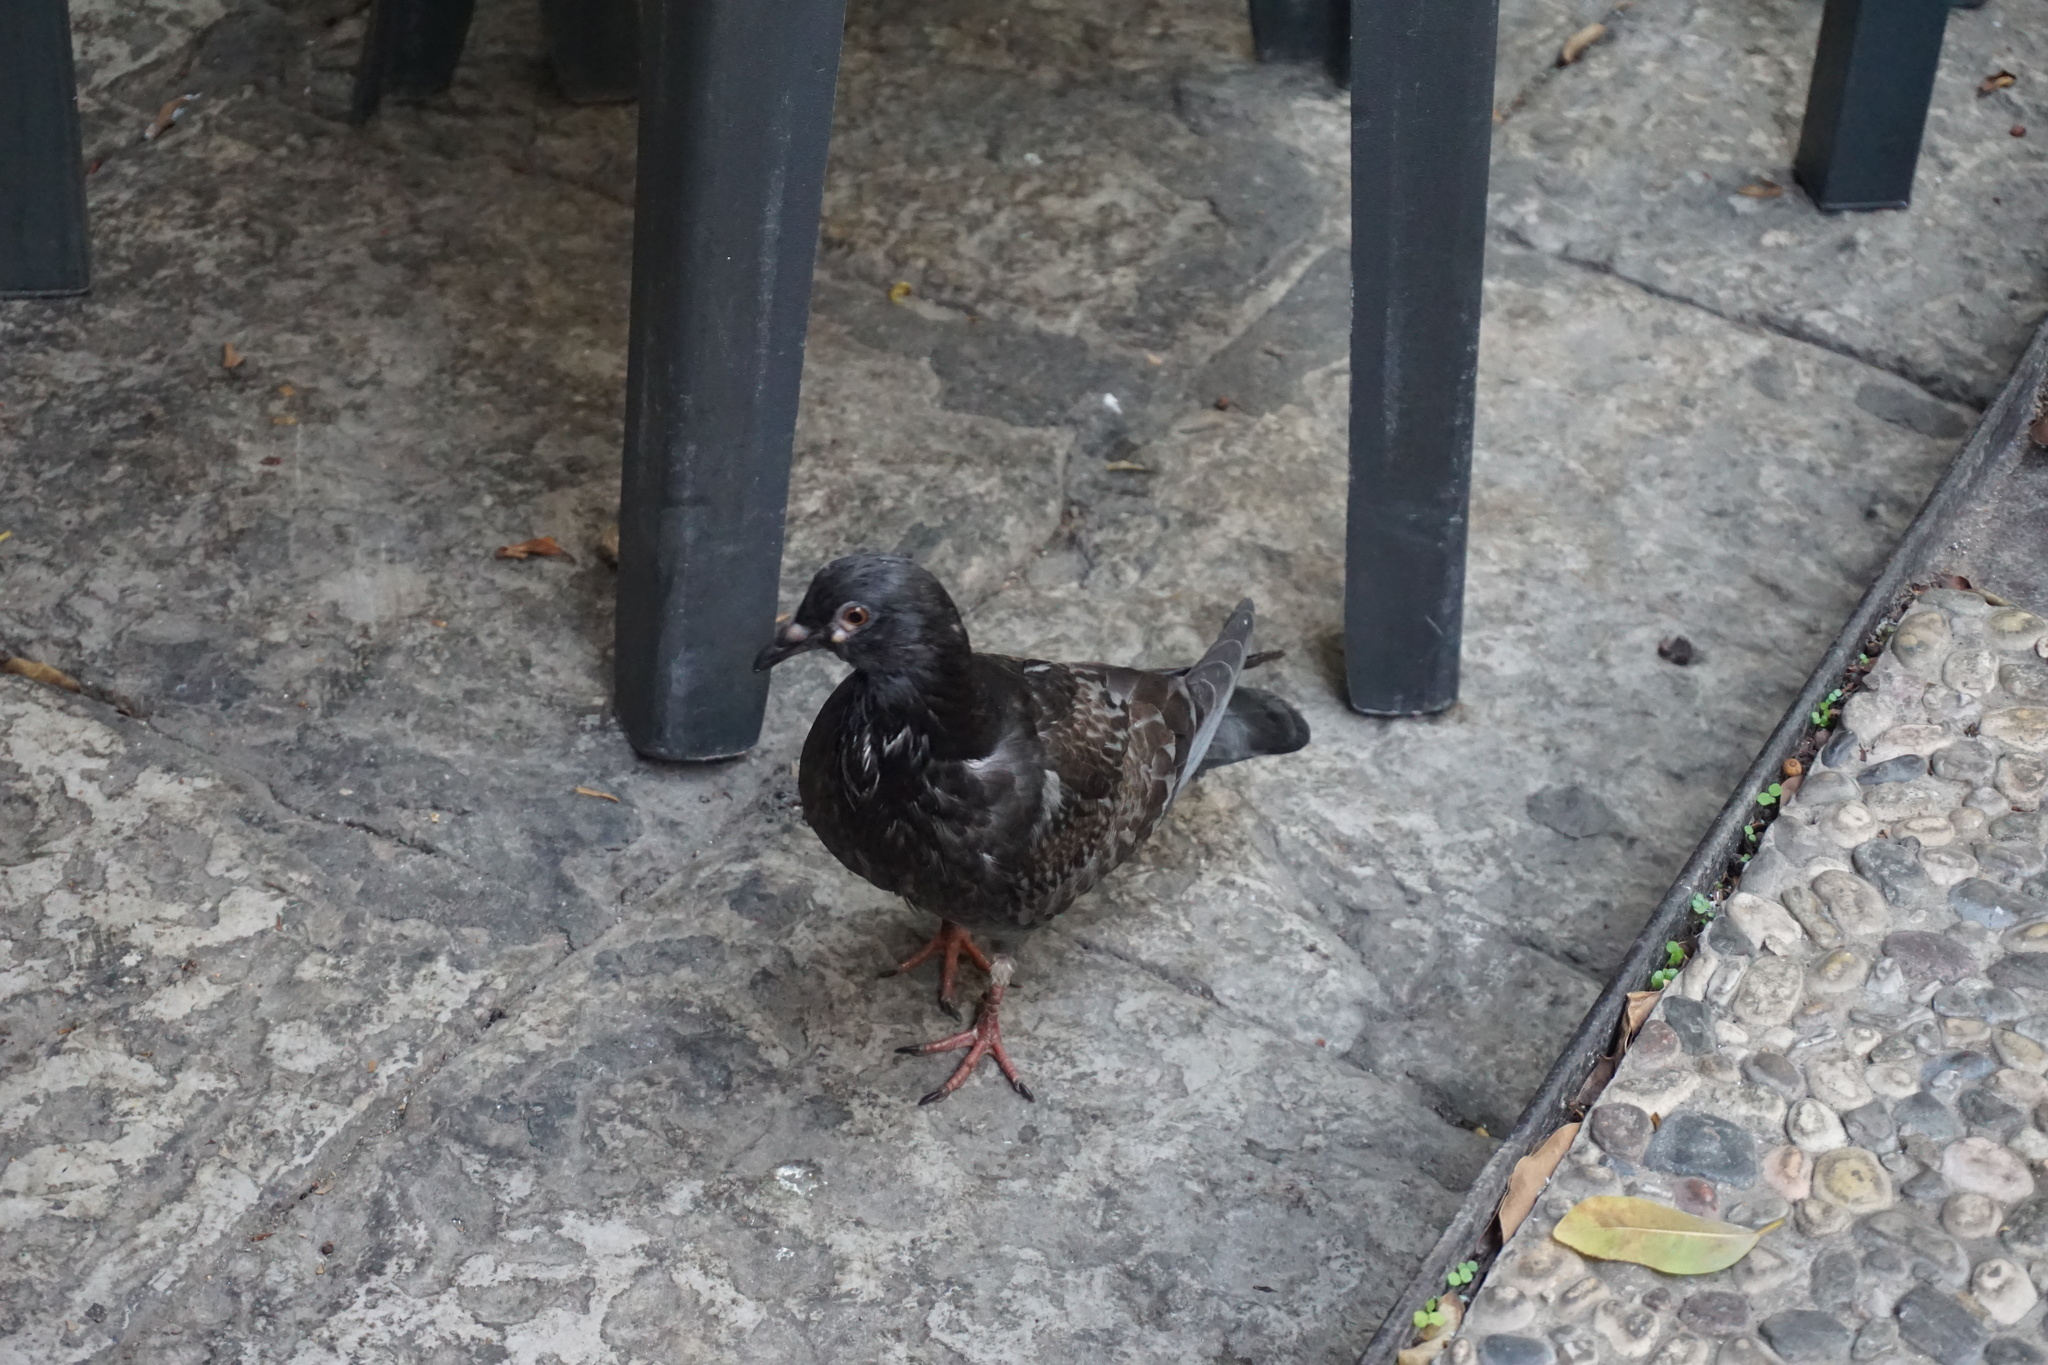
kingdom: Animalia
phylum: Chordata
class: Aves
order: Columbiformes
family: Columbidae
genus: Columba
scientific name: Columba livia
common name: Rock pigeon
